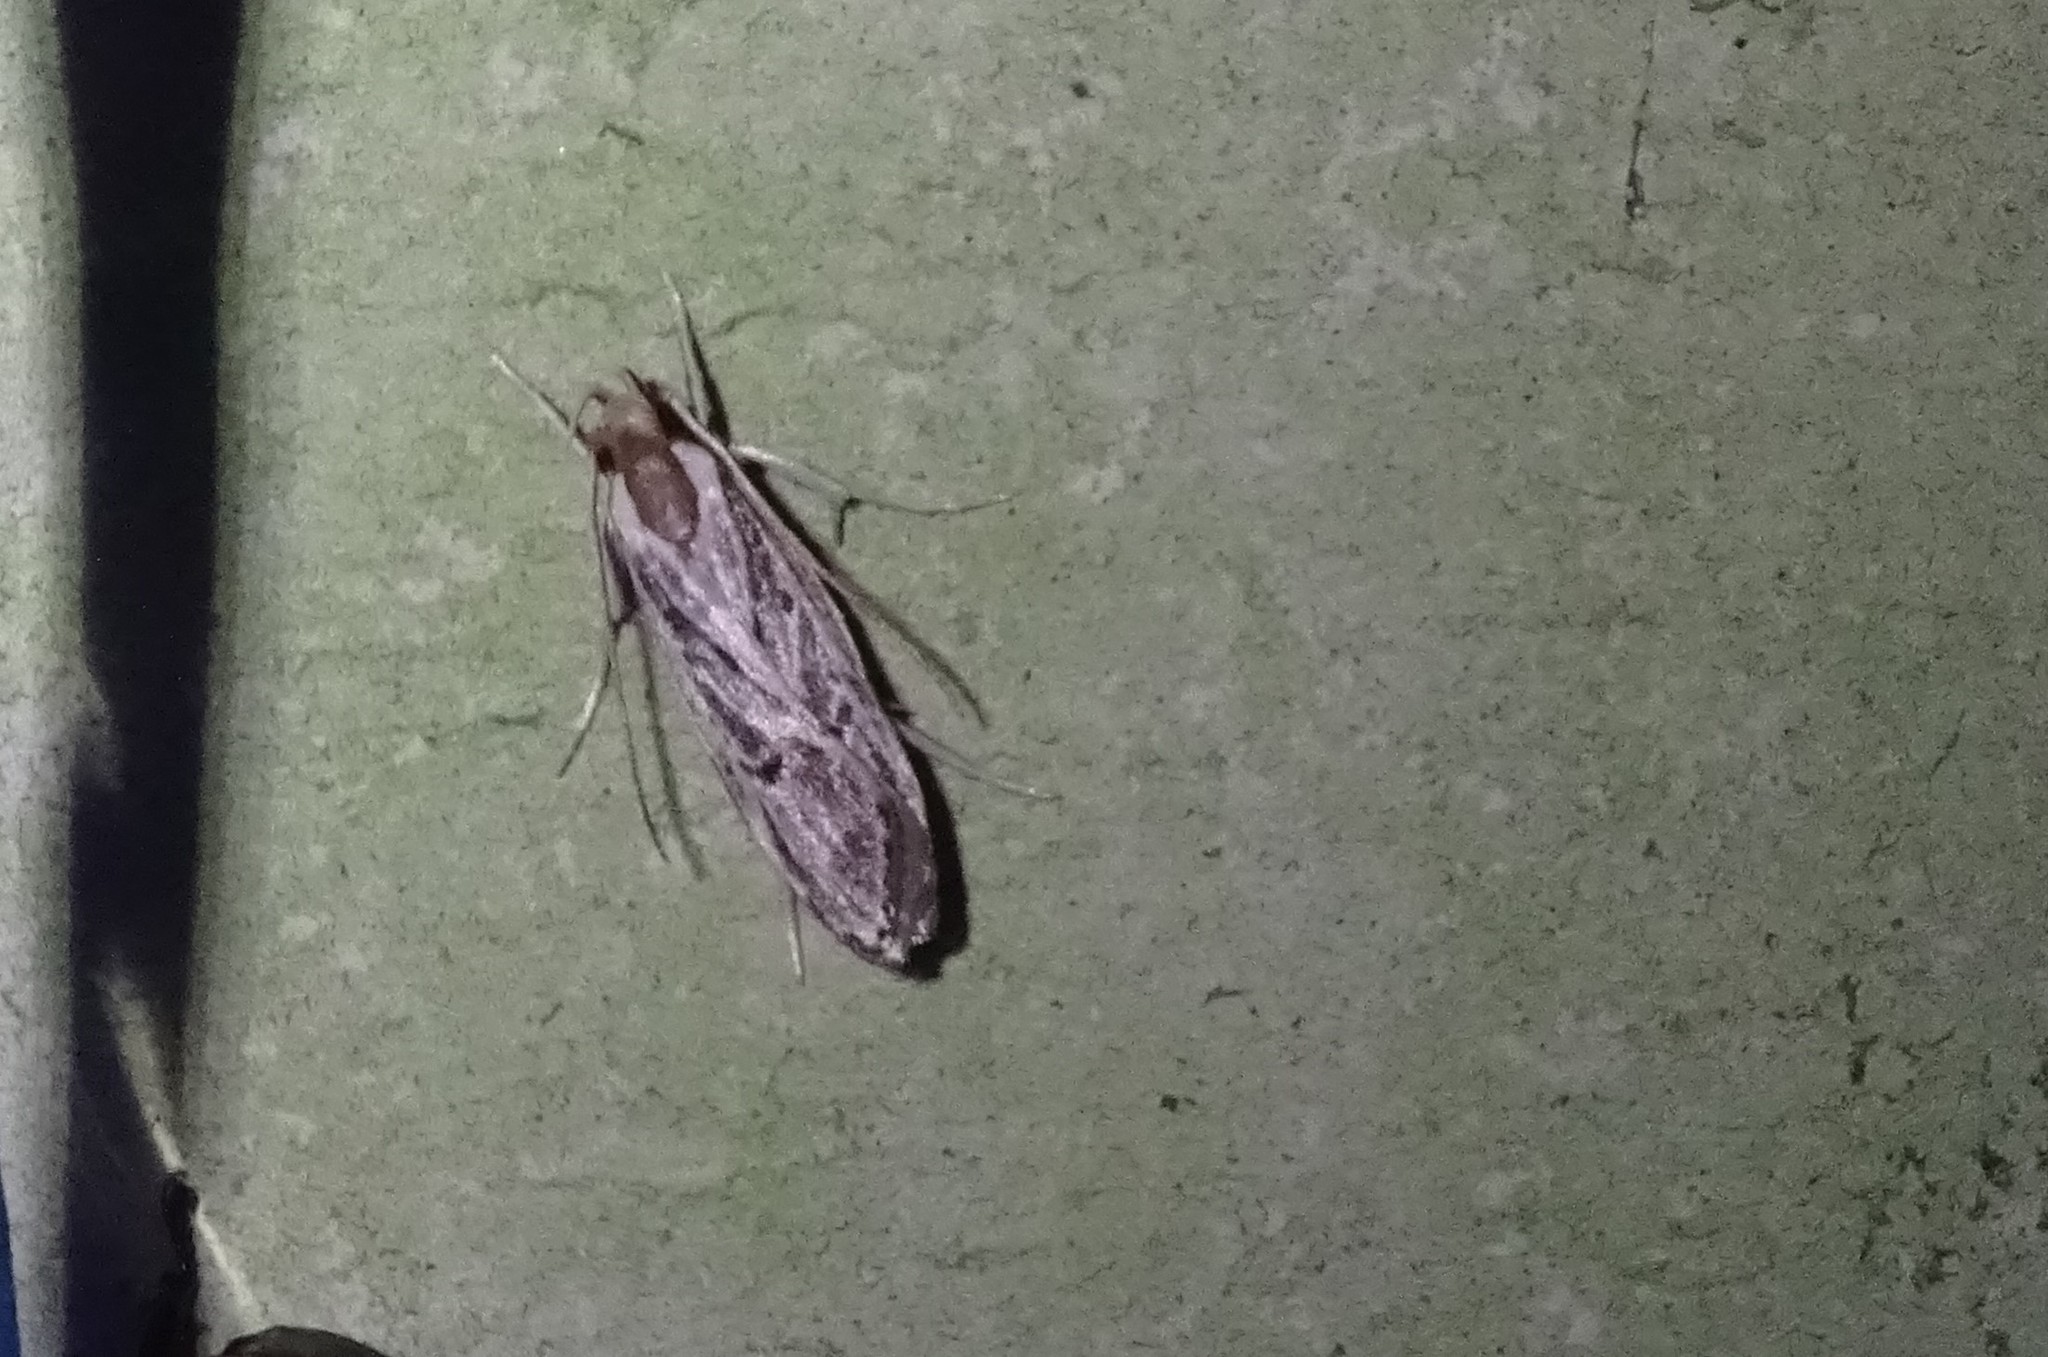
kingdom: Animalia
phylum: Arthropoda
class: Insecta
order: Lepidoptera
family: Depressariidae
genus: Eupragia
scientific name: Eupragia hospita
